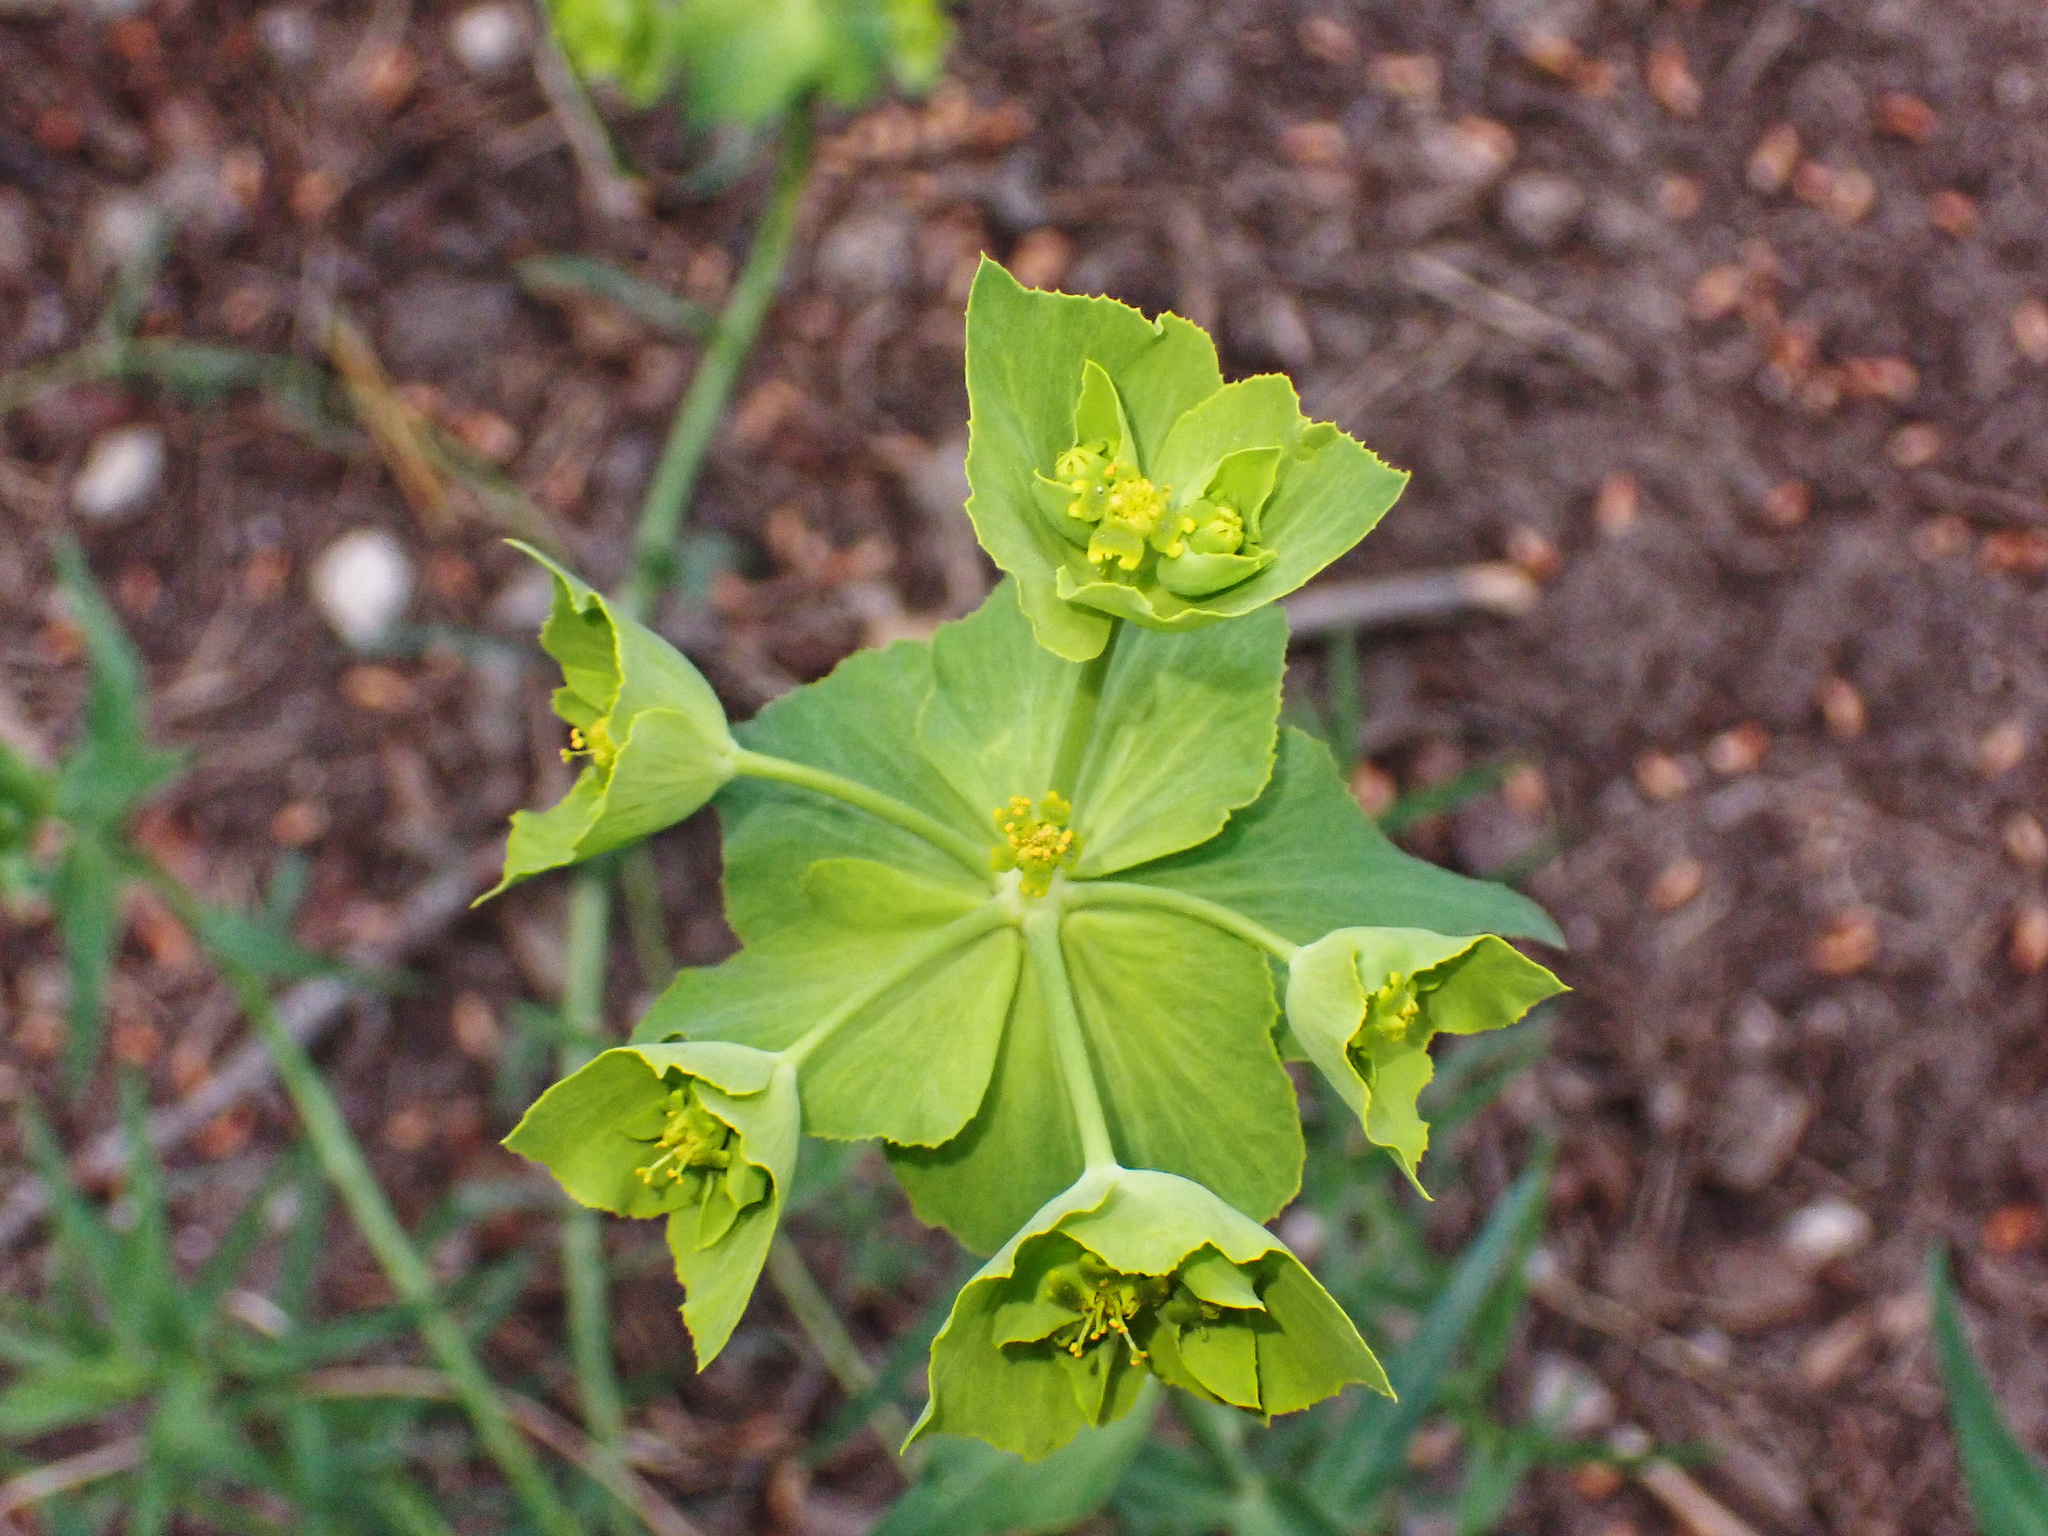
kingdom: Plantae
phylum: Tracheophyta
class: Magnoliopsida
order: Malpighiales
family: Euphorbiaceae
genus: Euphorbia
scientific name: Euphorbia serrata
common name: Serrate spurge
